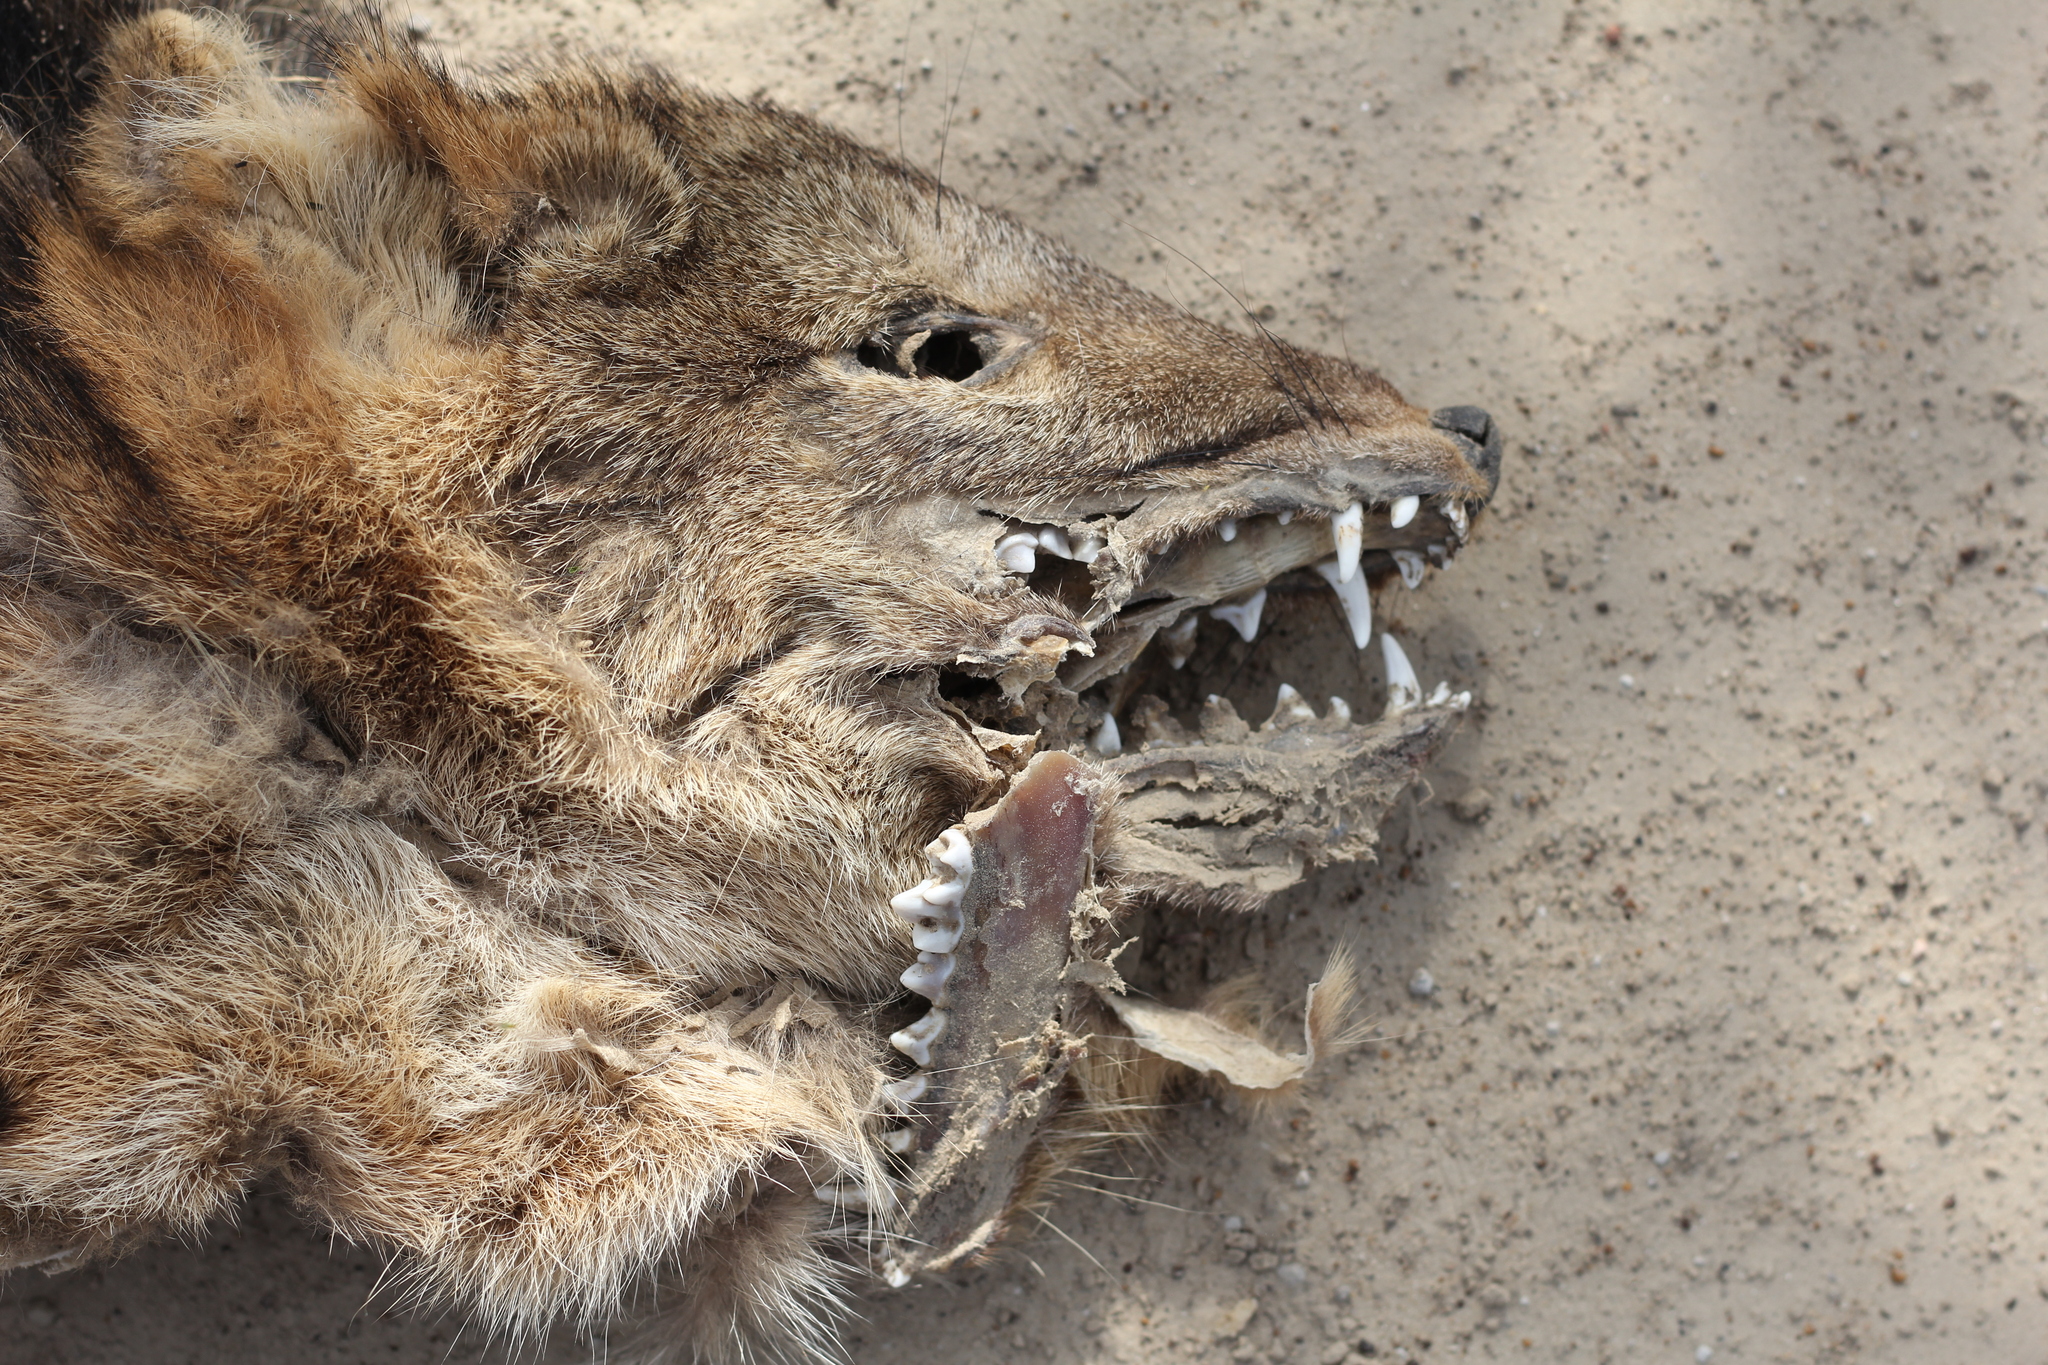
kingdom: Animalia
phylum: Chordata
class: Mammalia
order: Carnivora
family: Canidae
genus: Cerdocyon
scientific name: Cerdocyon thous
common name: Crab-eating fox
